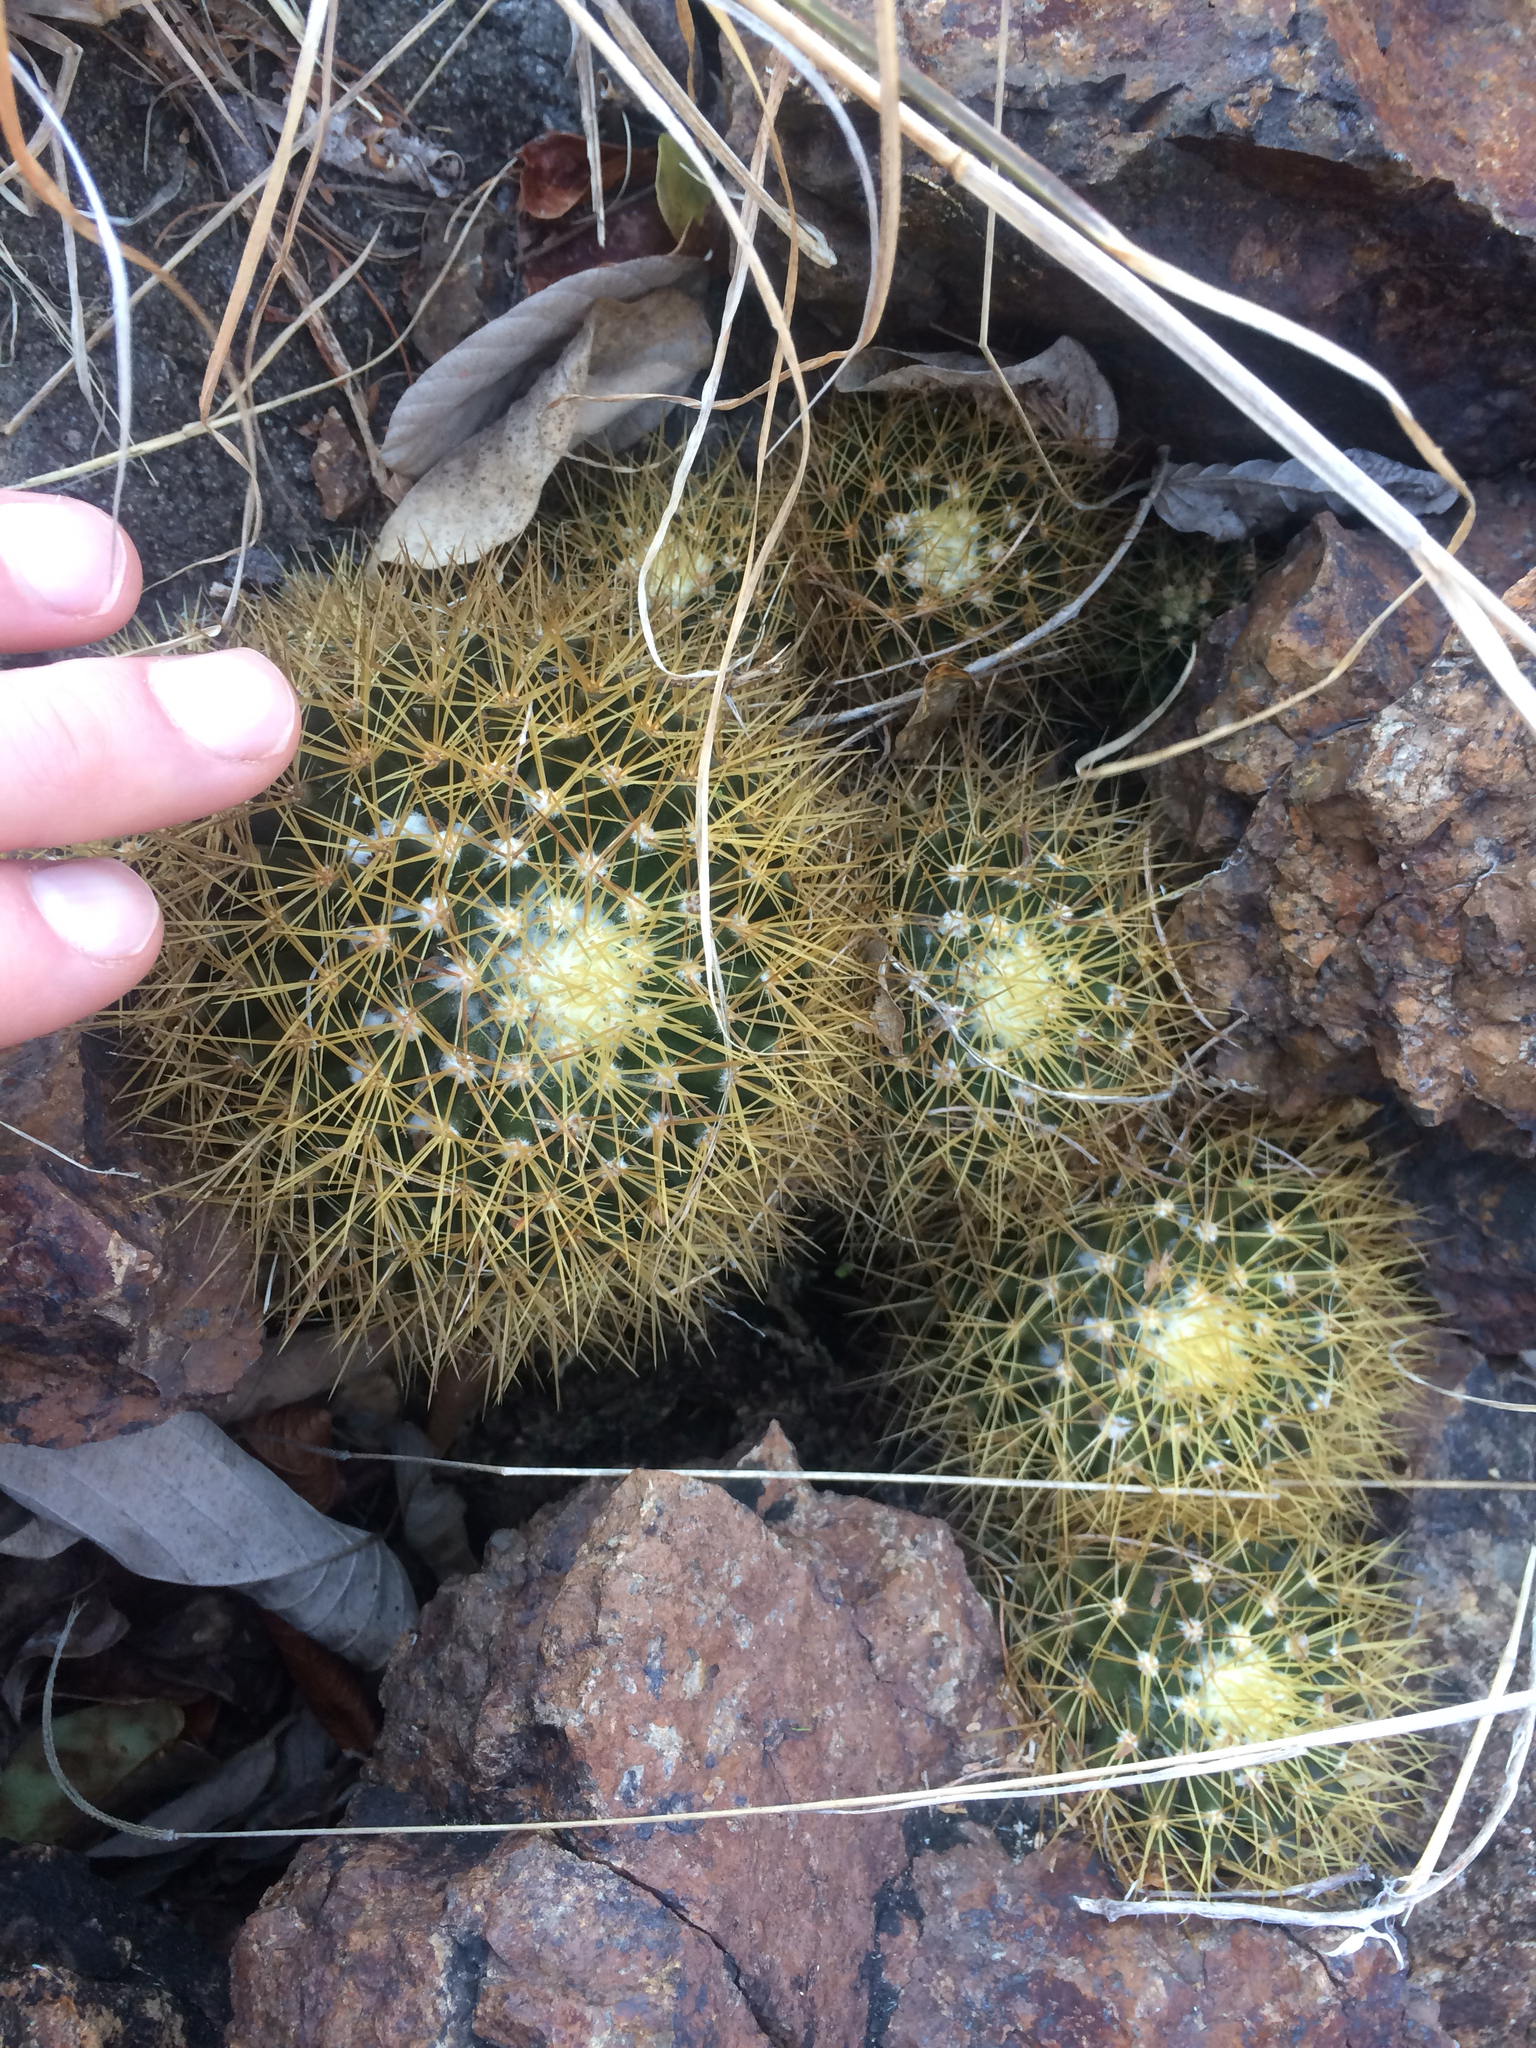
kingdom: Plantae
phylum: Tracheophyta
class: Magnoliopsida
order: Caryophyllales
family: Cactaceae
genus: Mammillaria
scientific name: Mammillaria nivosa
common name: Woolly nipple cactus
